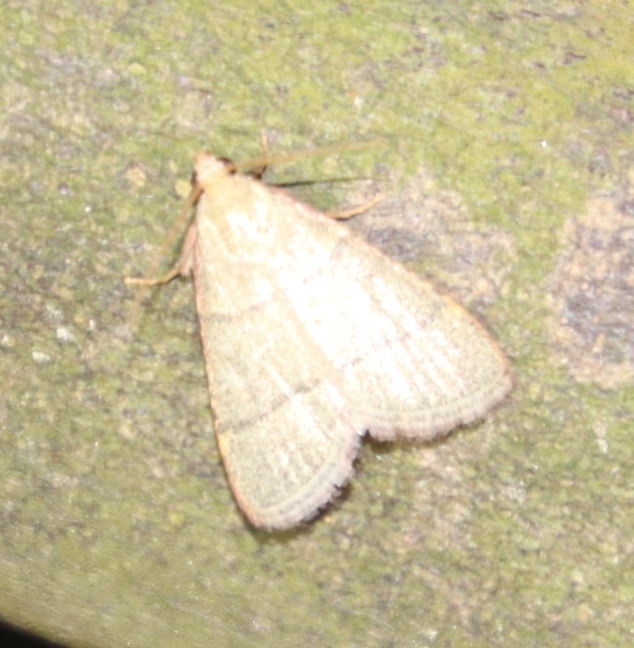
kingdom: Animalia
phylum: Arthropoda
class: Insecta
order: Lepidoptera
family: Pyralidae
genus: Hypsopygia
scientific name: Hypsopygia nostralis
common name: Southern hayworm moth
